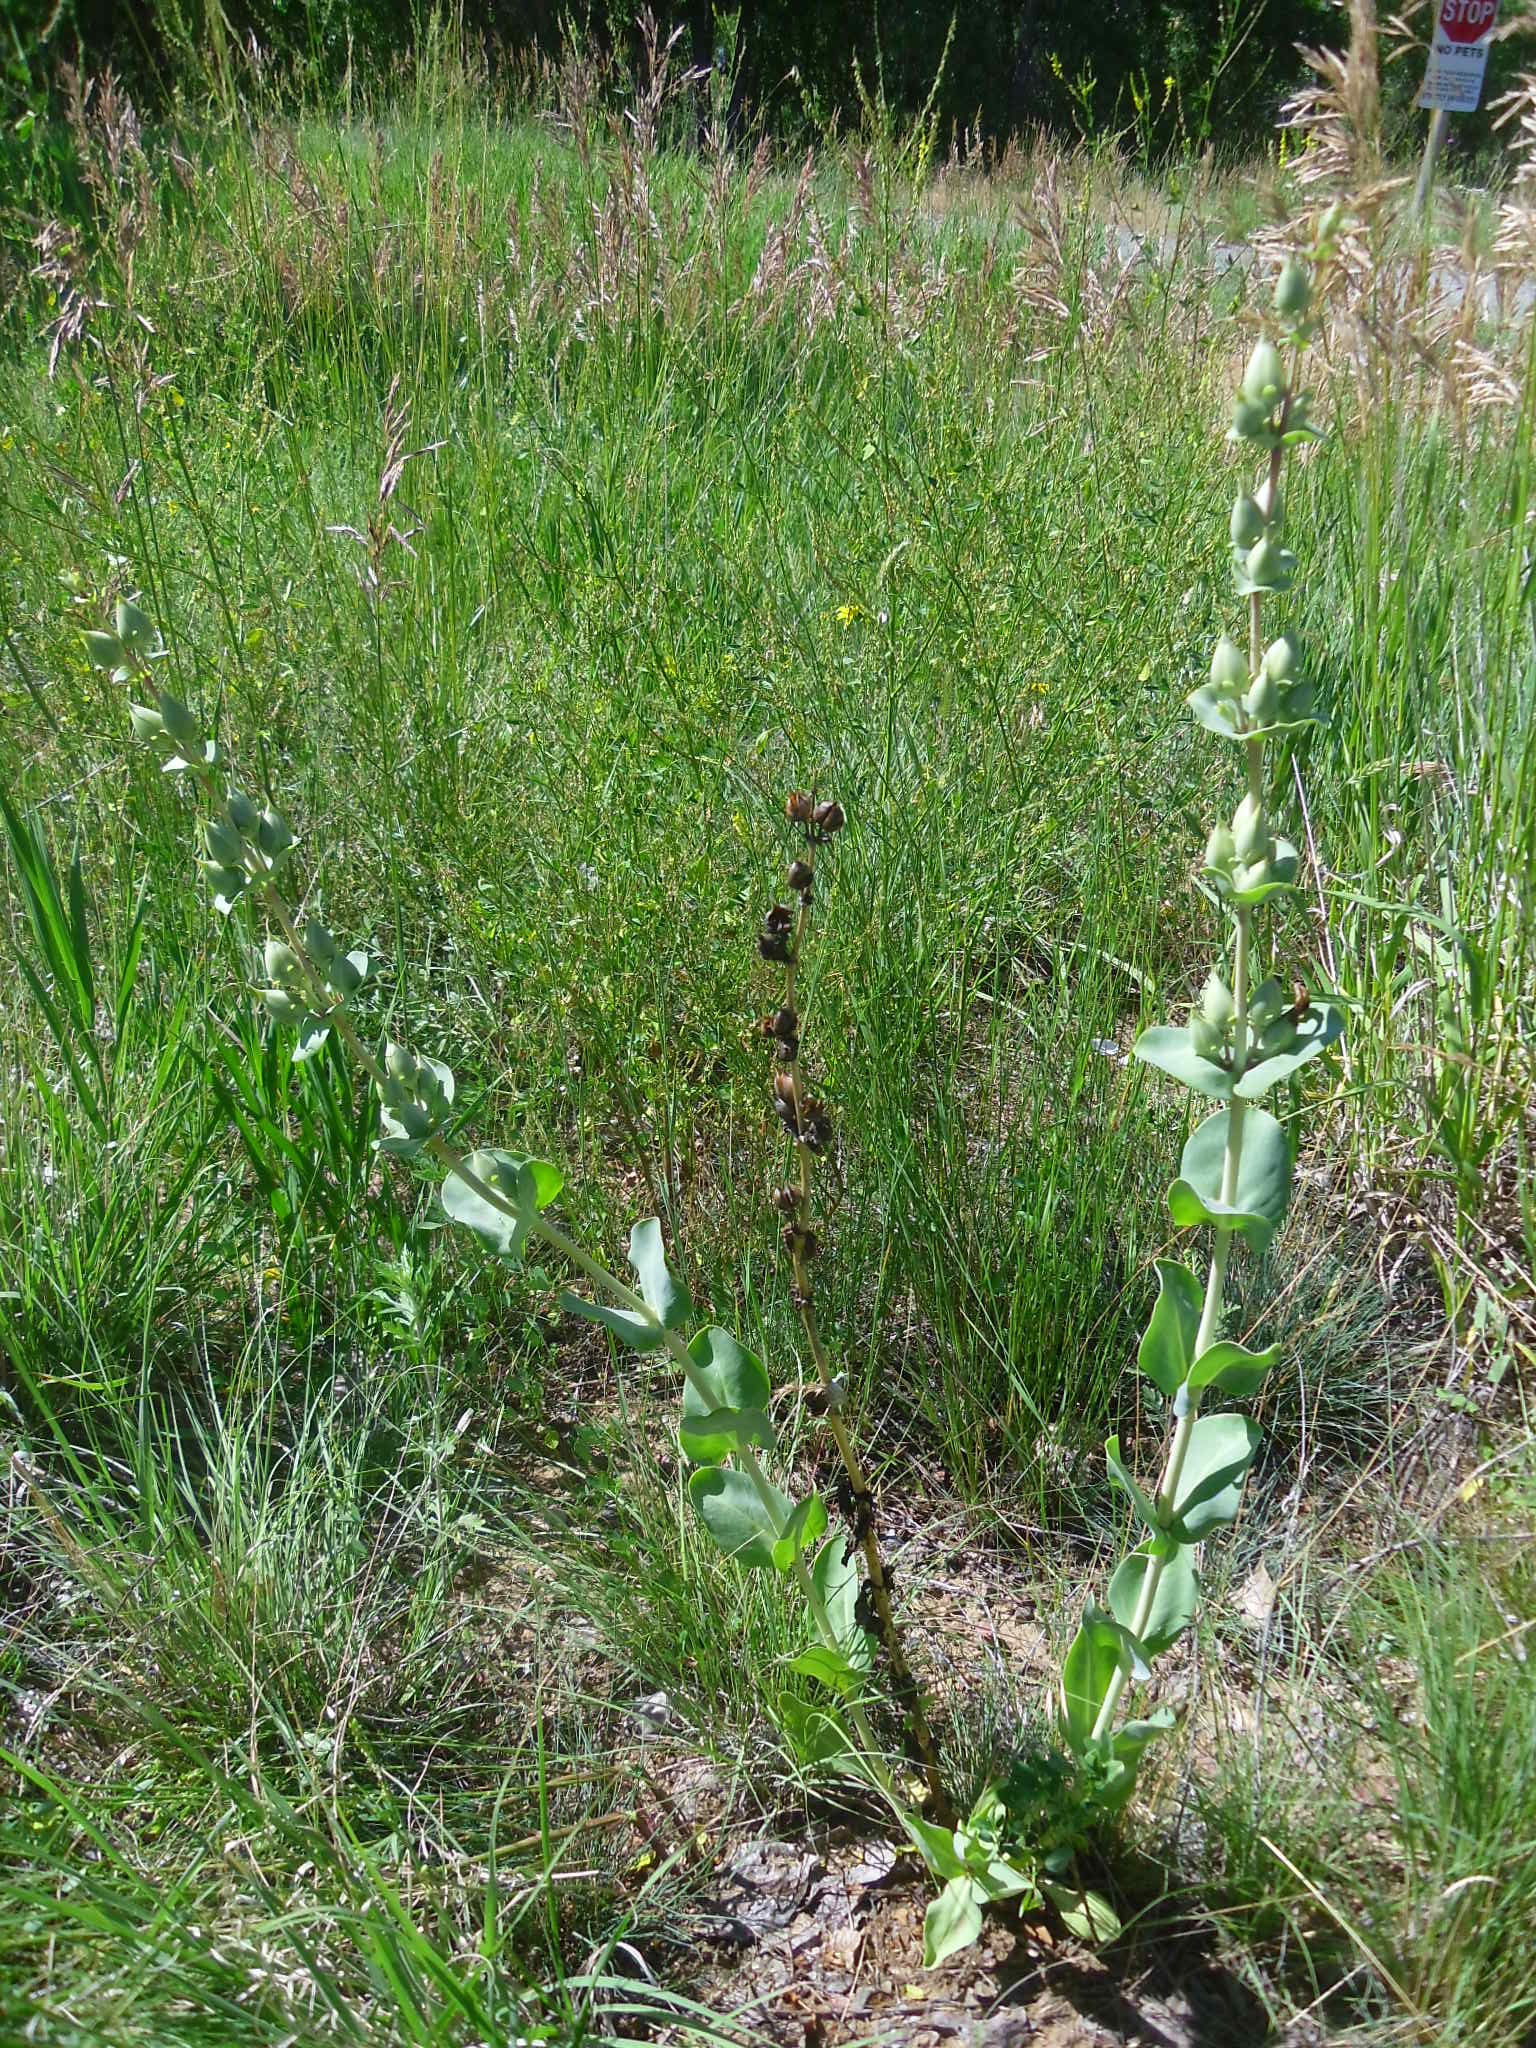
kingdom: Plantae
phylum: Tracheophyta
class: Magnoliopsida
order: Lamiales
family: Plantaginaceae
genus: Penstemon
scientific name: Penstemon
